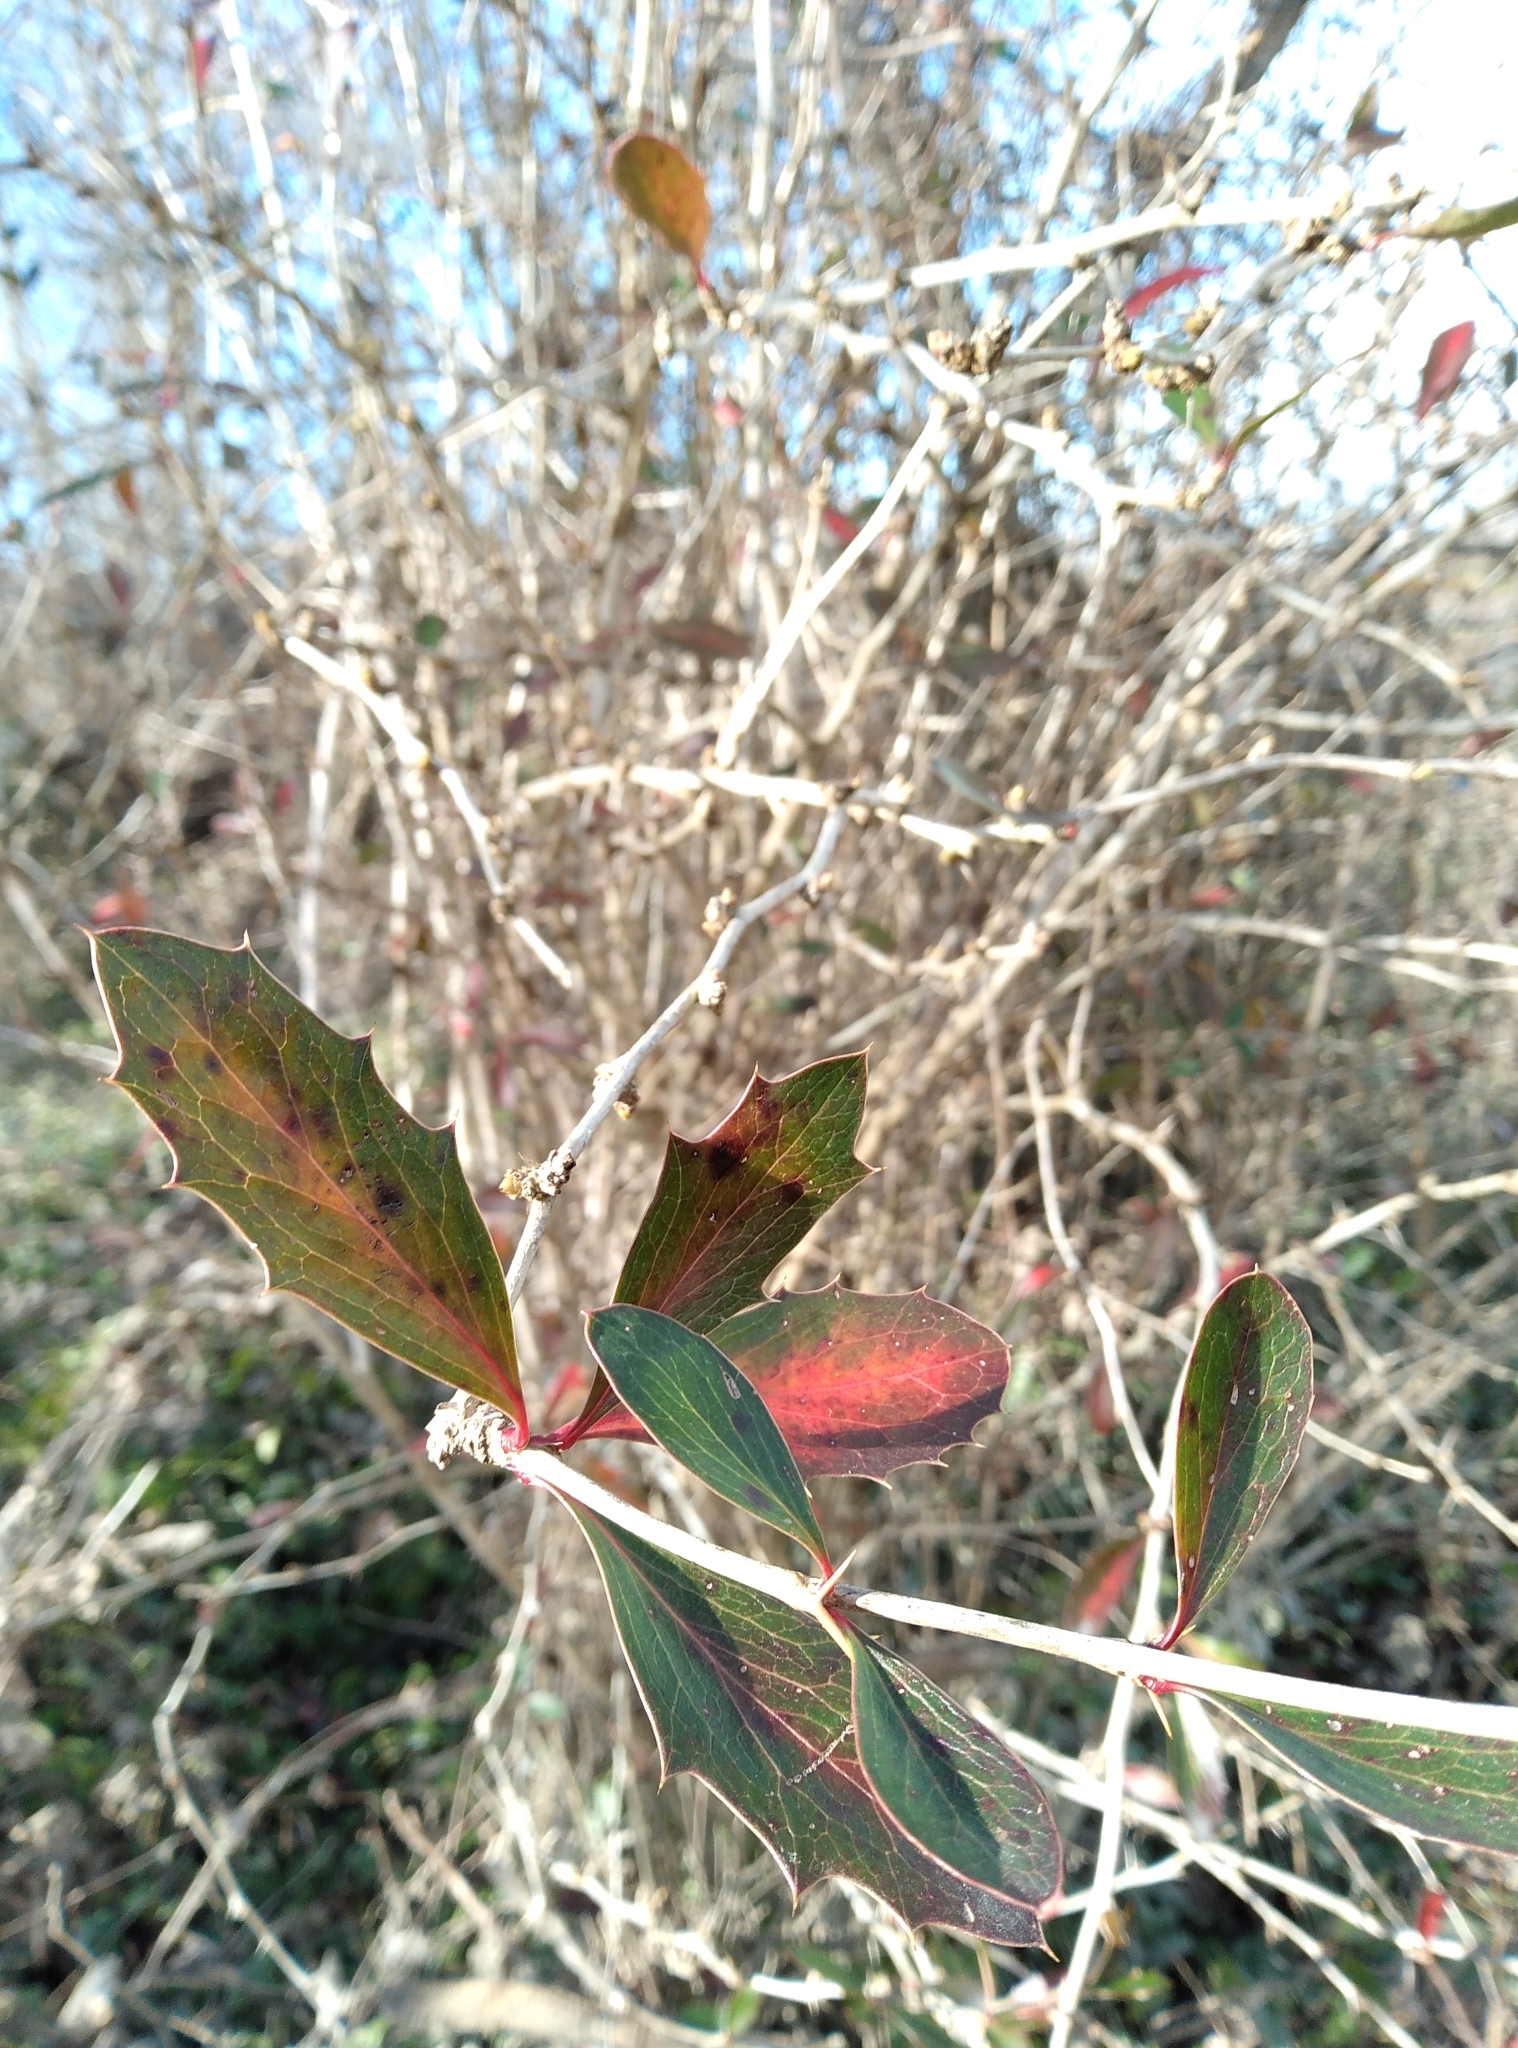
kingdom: Plantae
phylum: Tracheophyta
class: Magnoliopsida
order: Ranunculales
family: Berberidaceae
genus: Berberis
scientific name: Berberis glaucocarpa
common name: Great barberry
